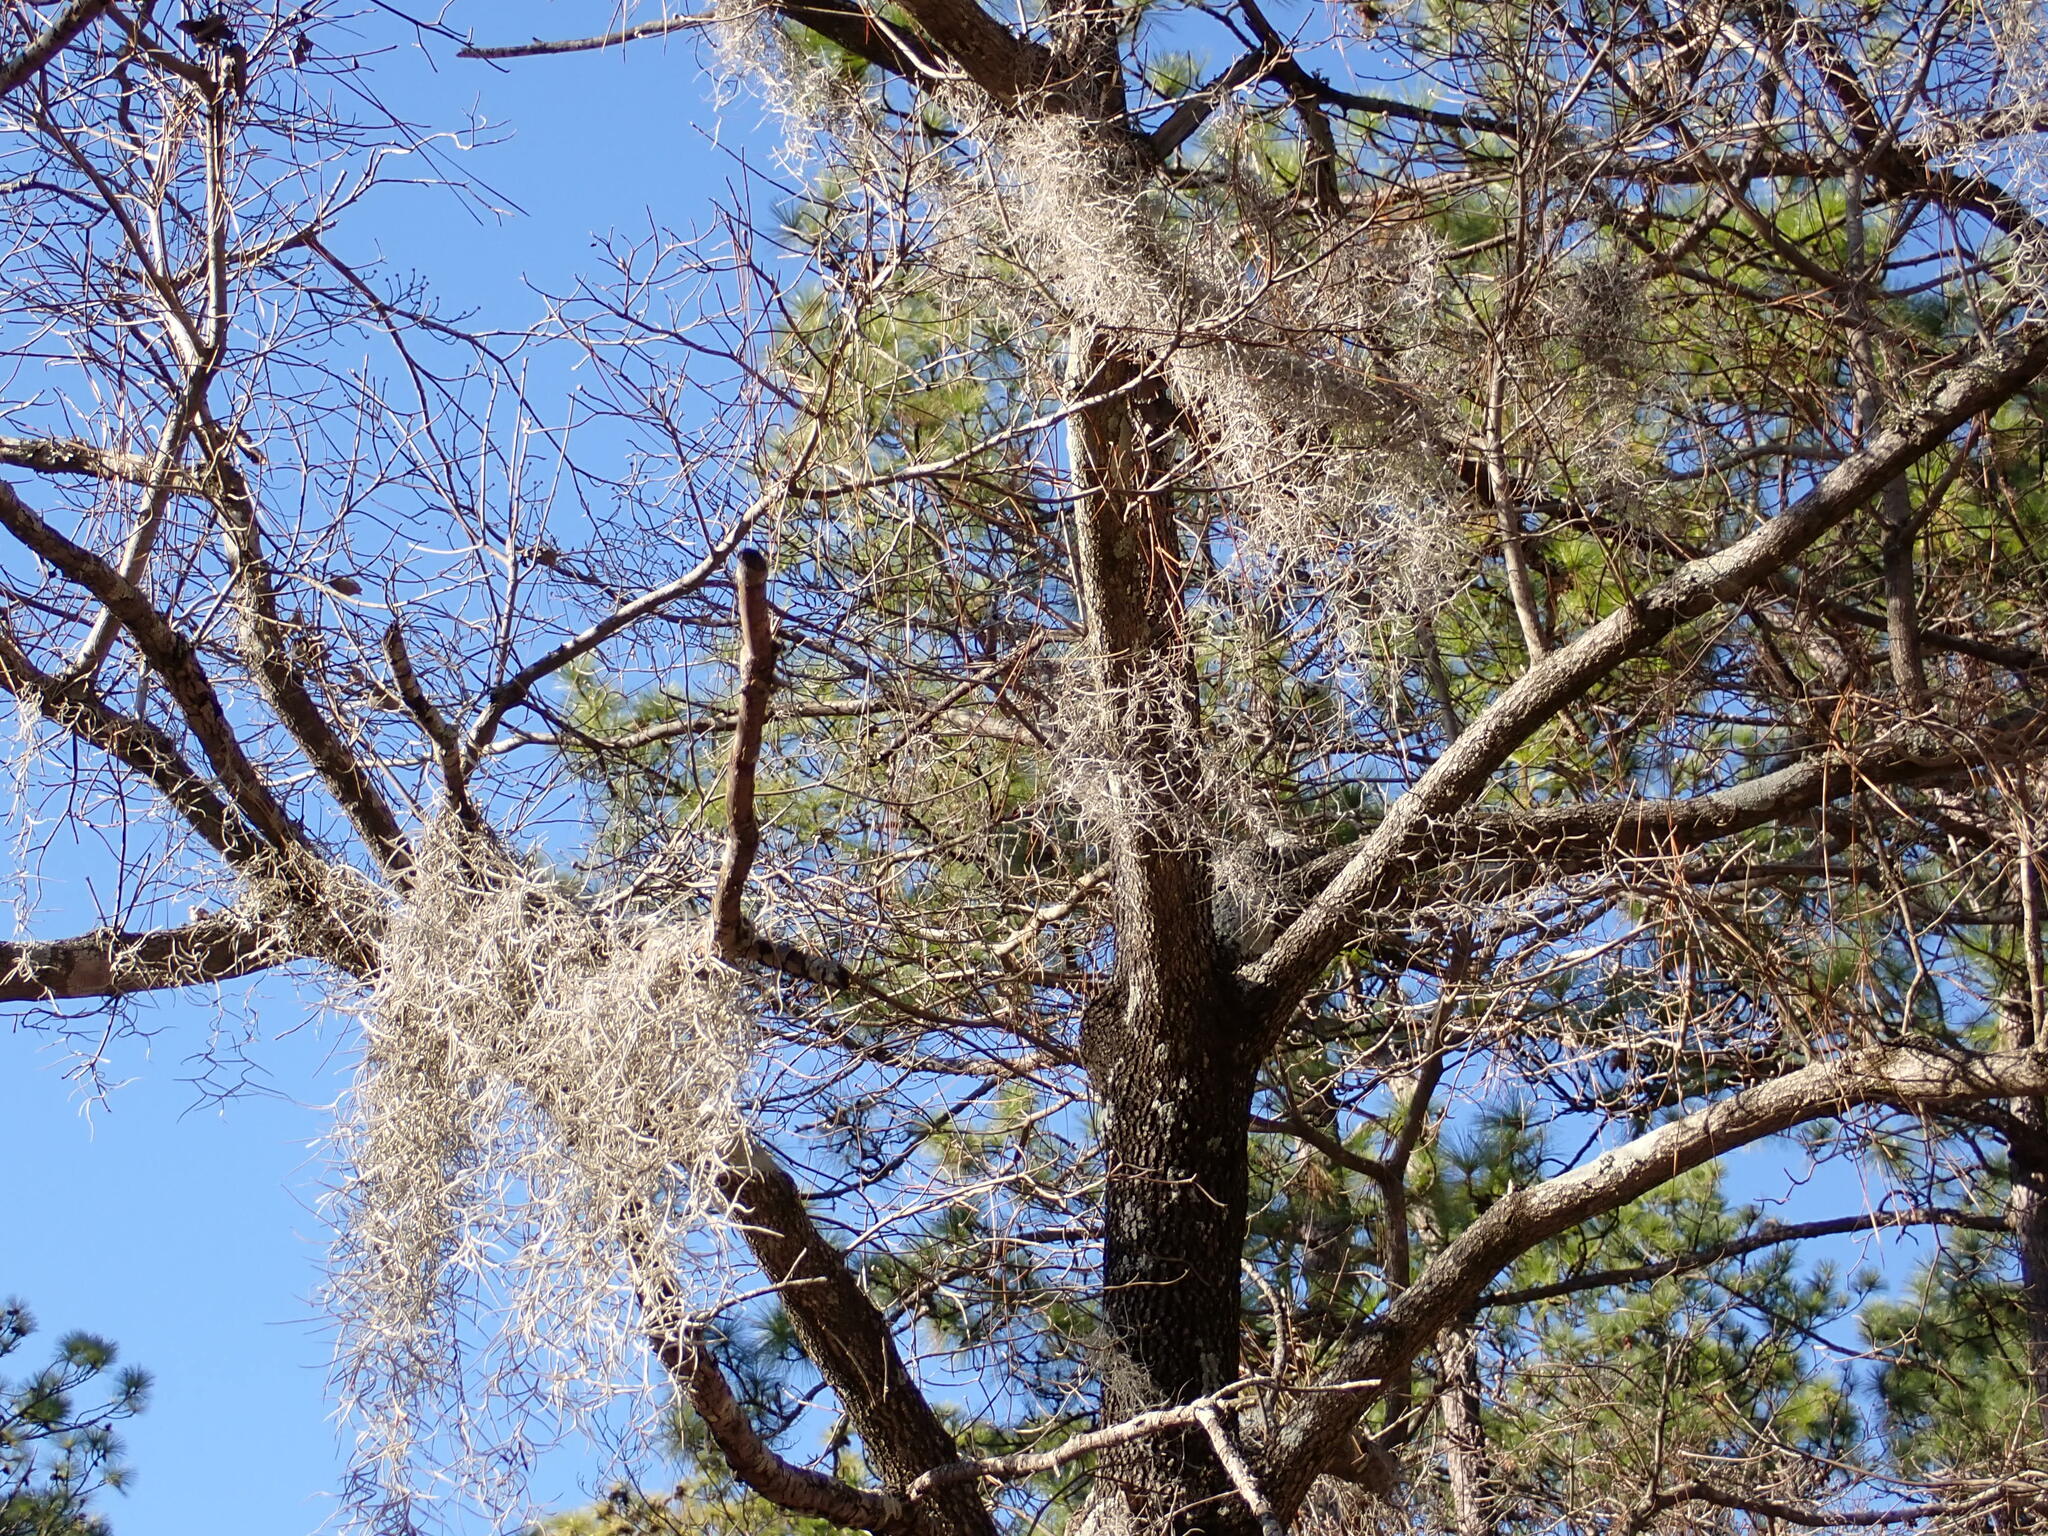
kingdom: Plantae
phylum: Tracheophyta
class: Liliopsida
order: Poales
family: Bromeliaceae
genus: Tillandsia
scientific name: Tillandsia usneoides
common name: Spanish moss
